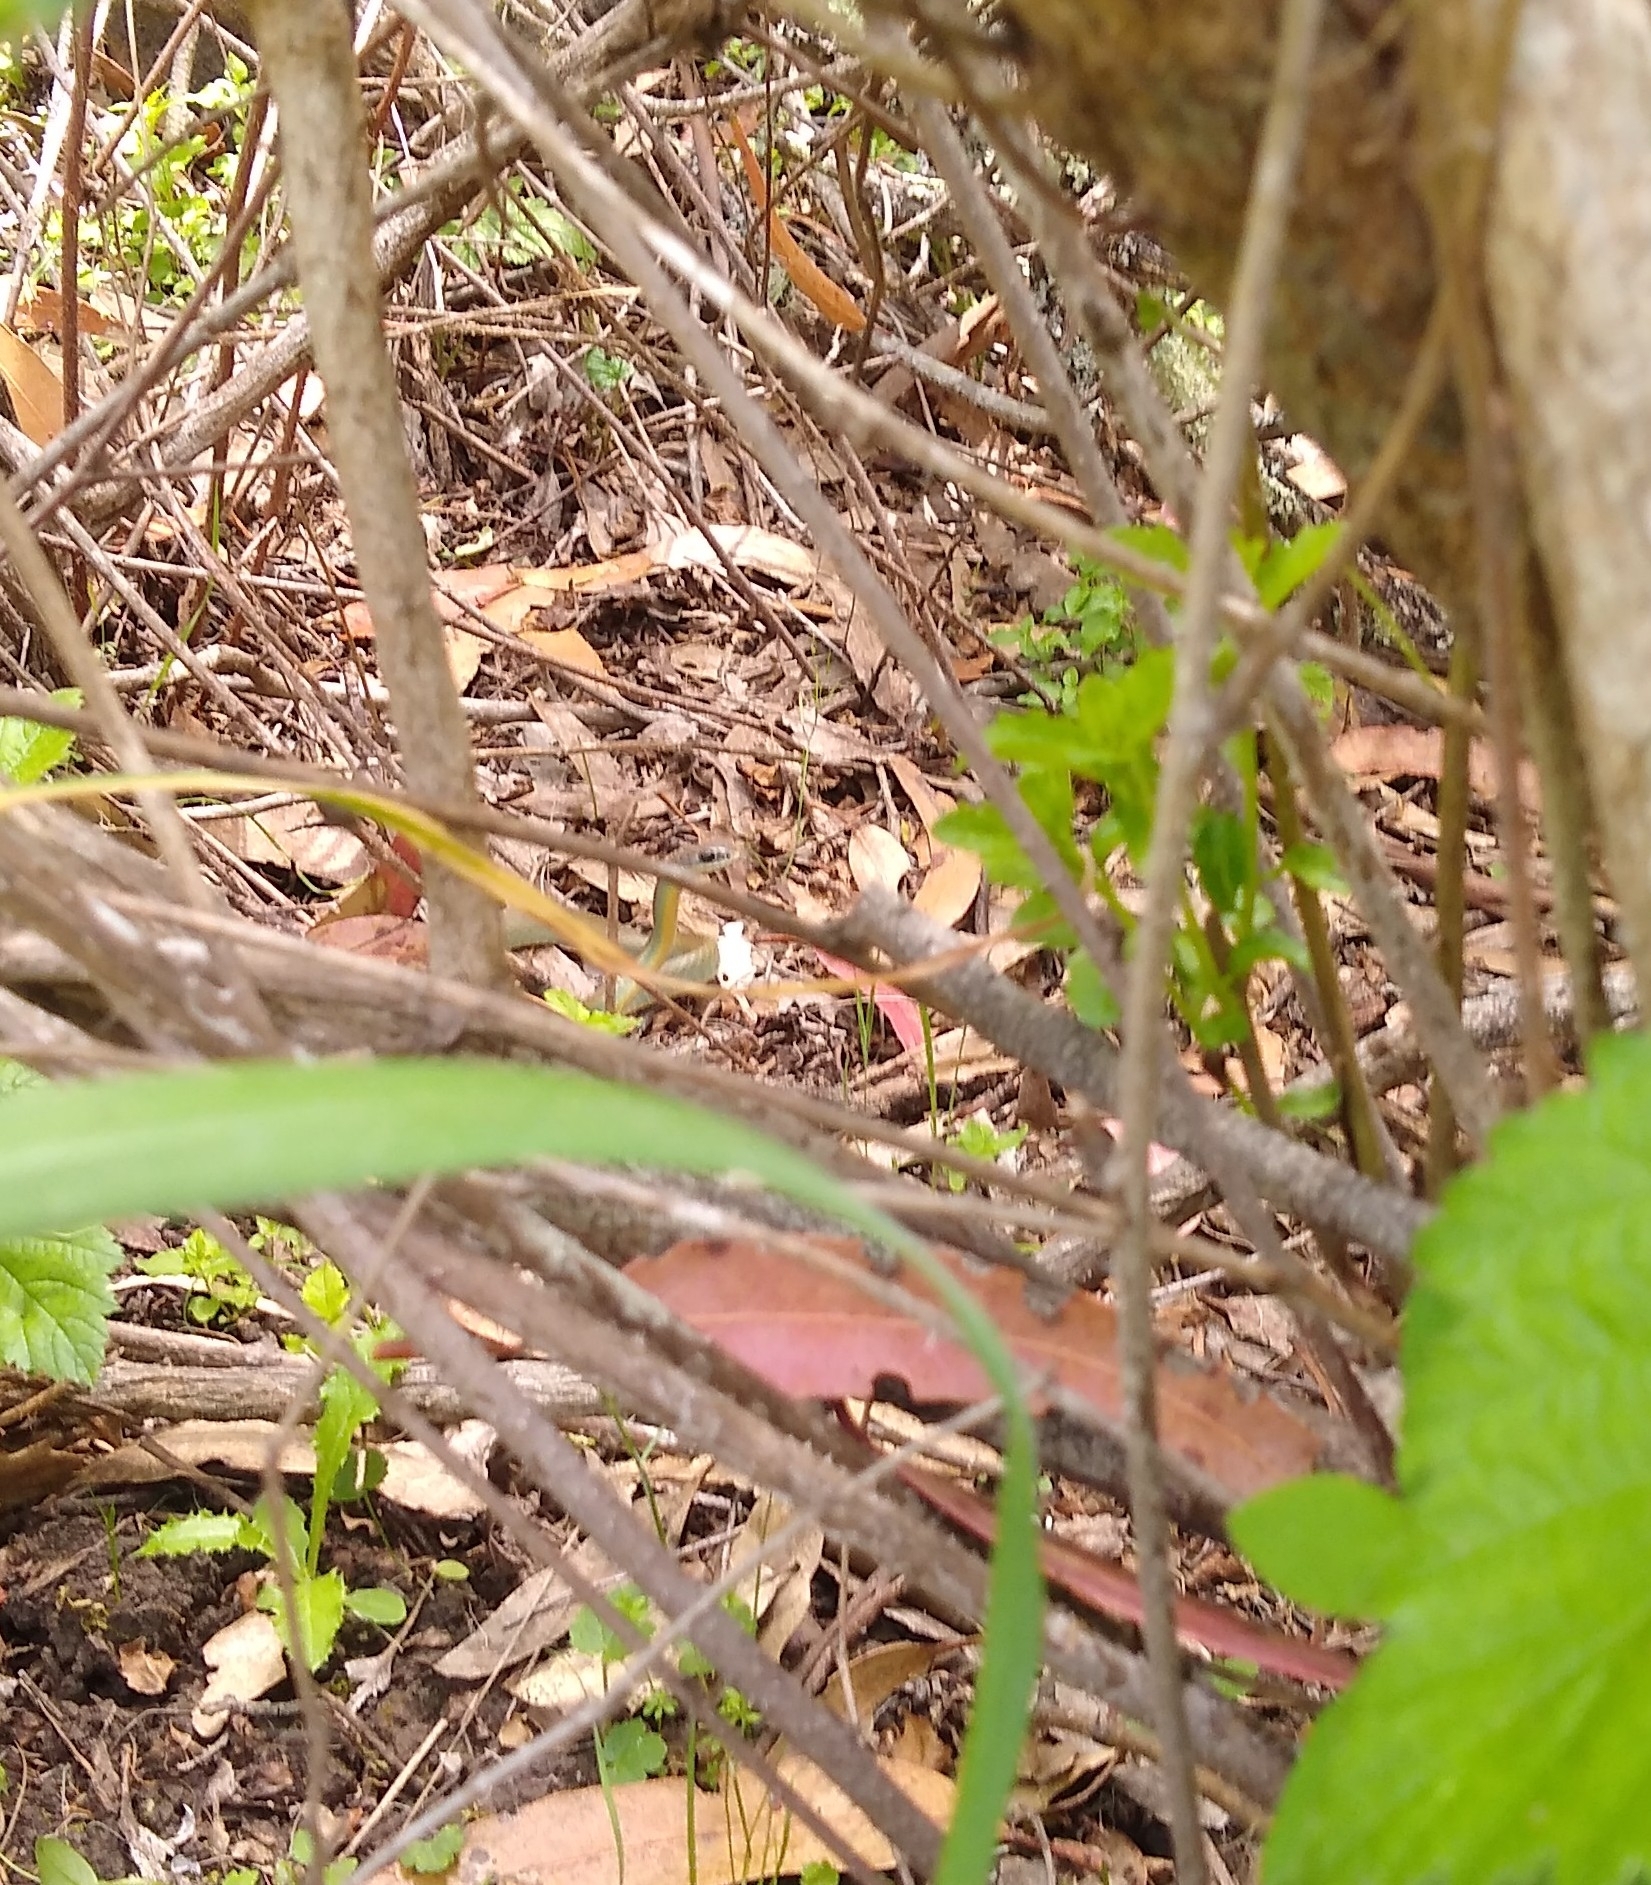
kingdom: Animalia
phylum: Chordata
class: Squamata
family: Colubridae
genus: Coluber
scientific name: Coluber constrictor
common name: Eastern racer
